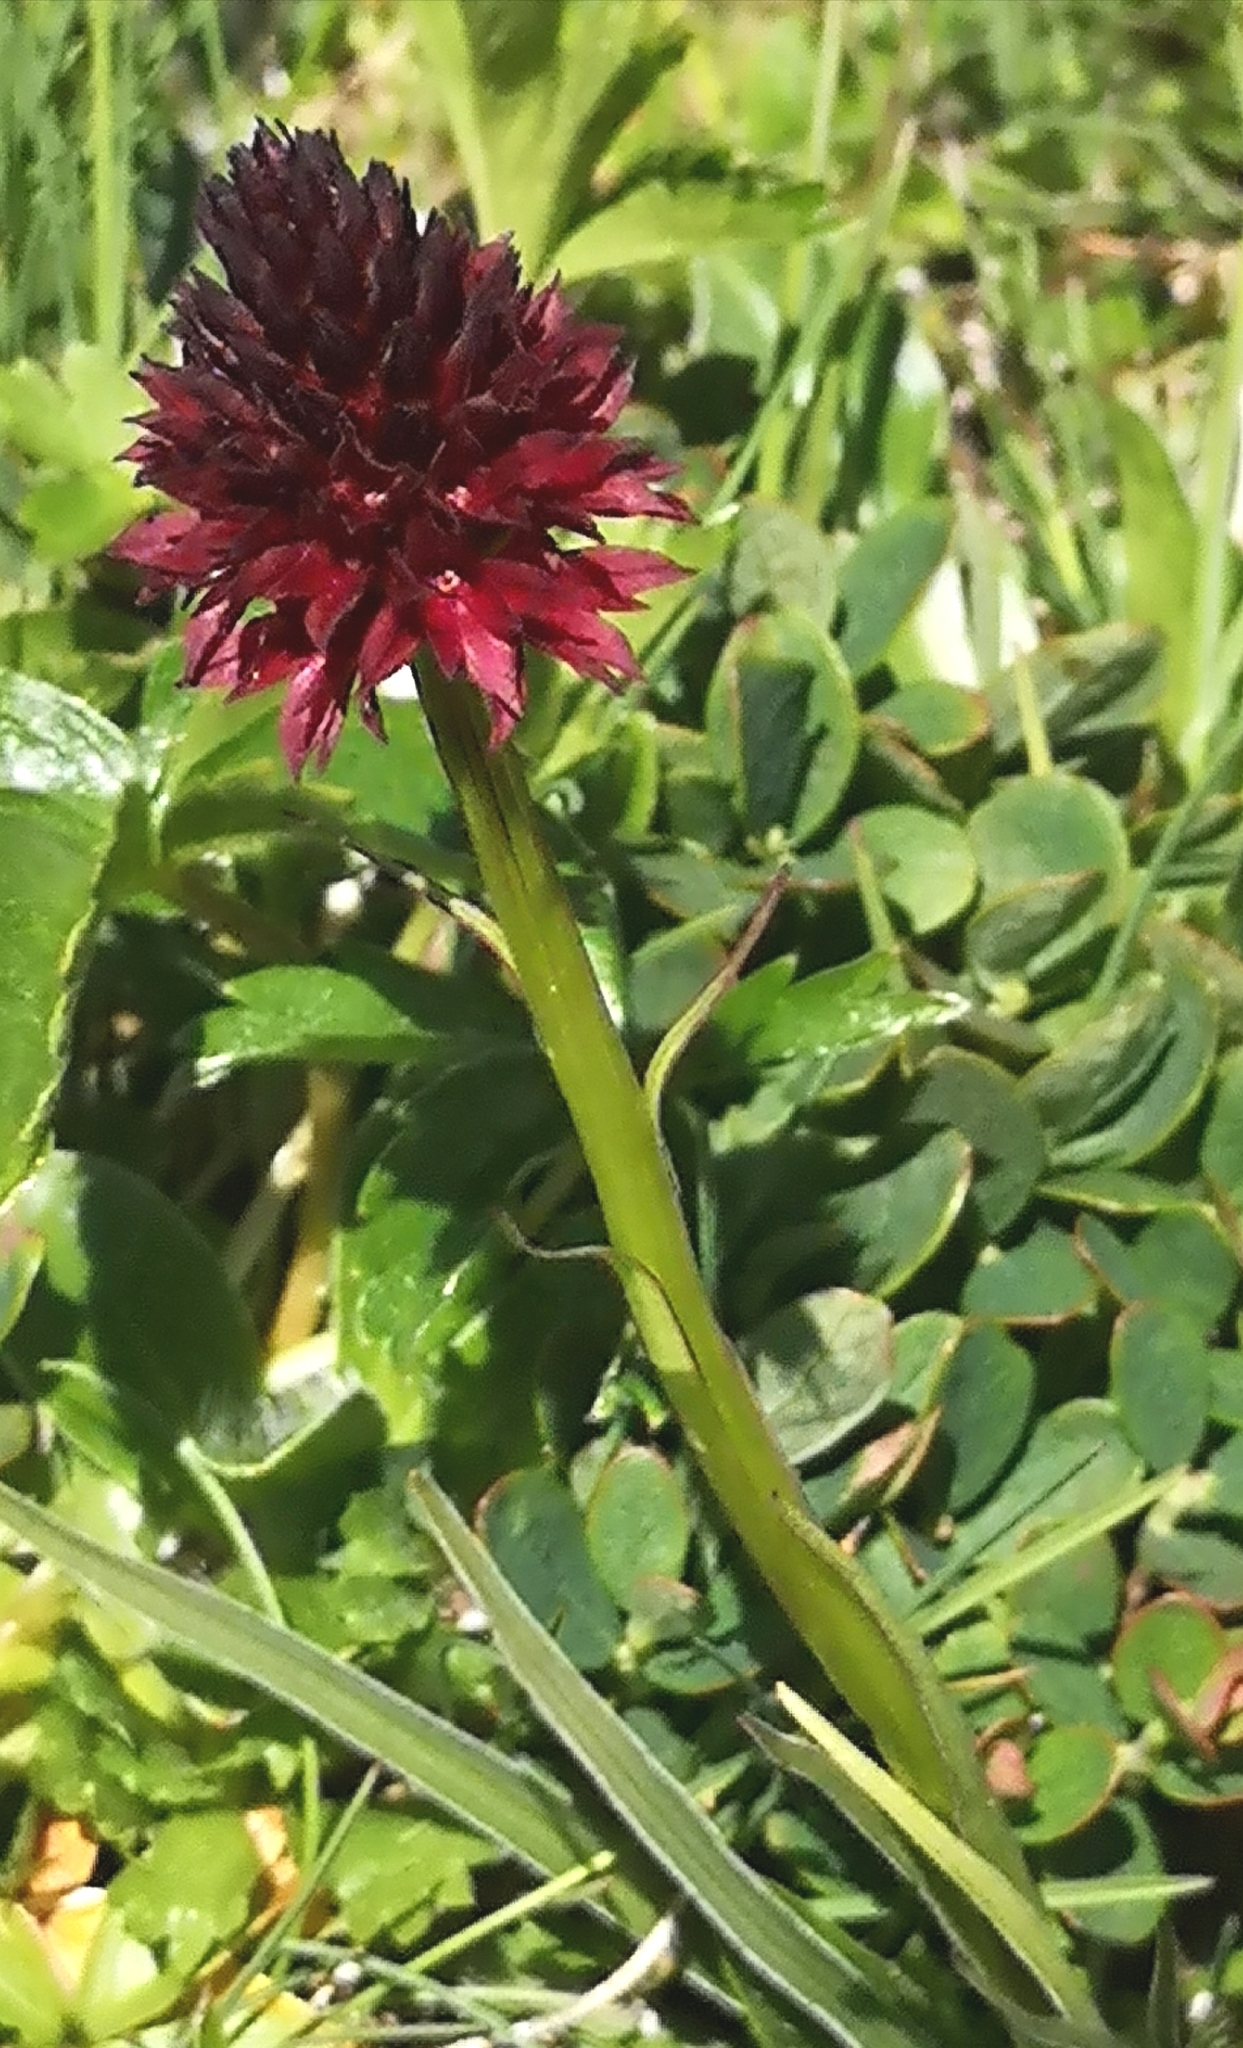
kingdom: Plantae
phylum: Tracheophyta
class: Liliopsida
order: Asparagales
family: Orchidaceae
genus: Gymnadenia
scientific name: Gymnadenia rhellicani
